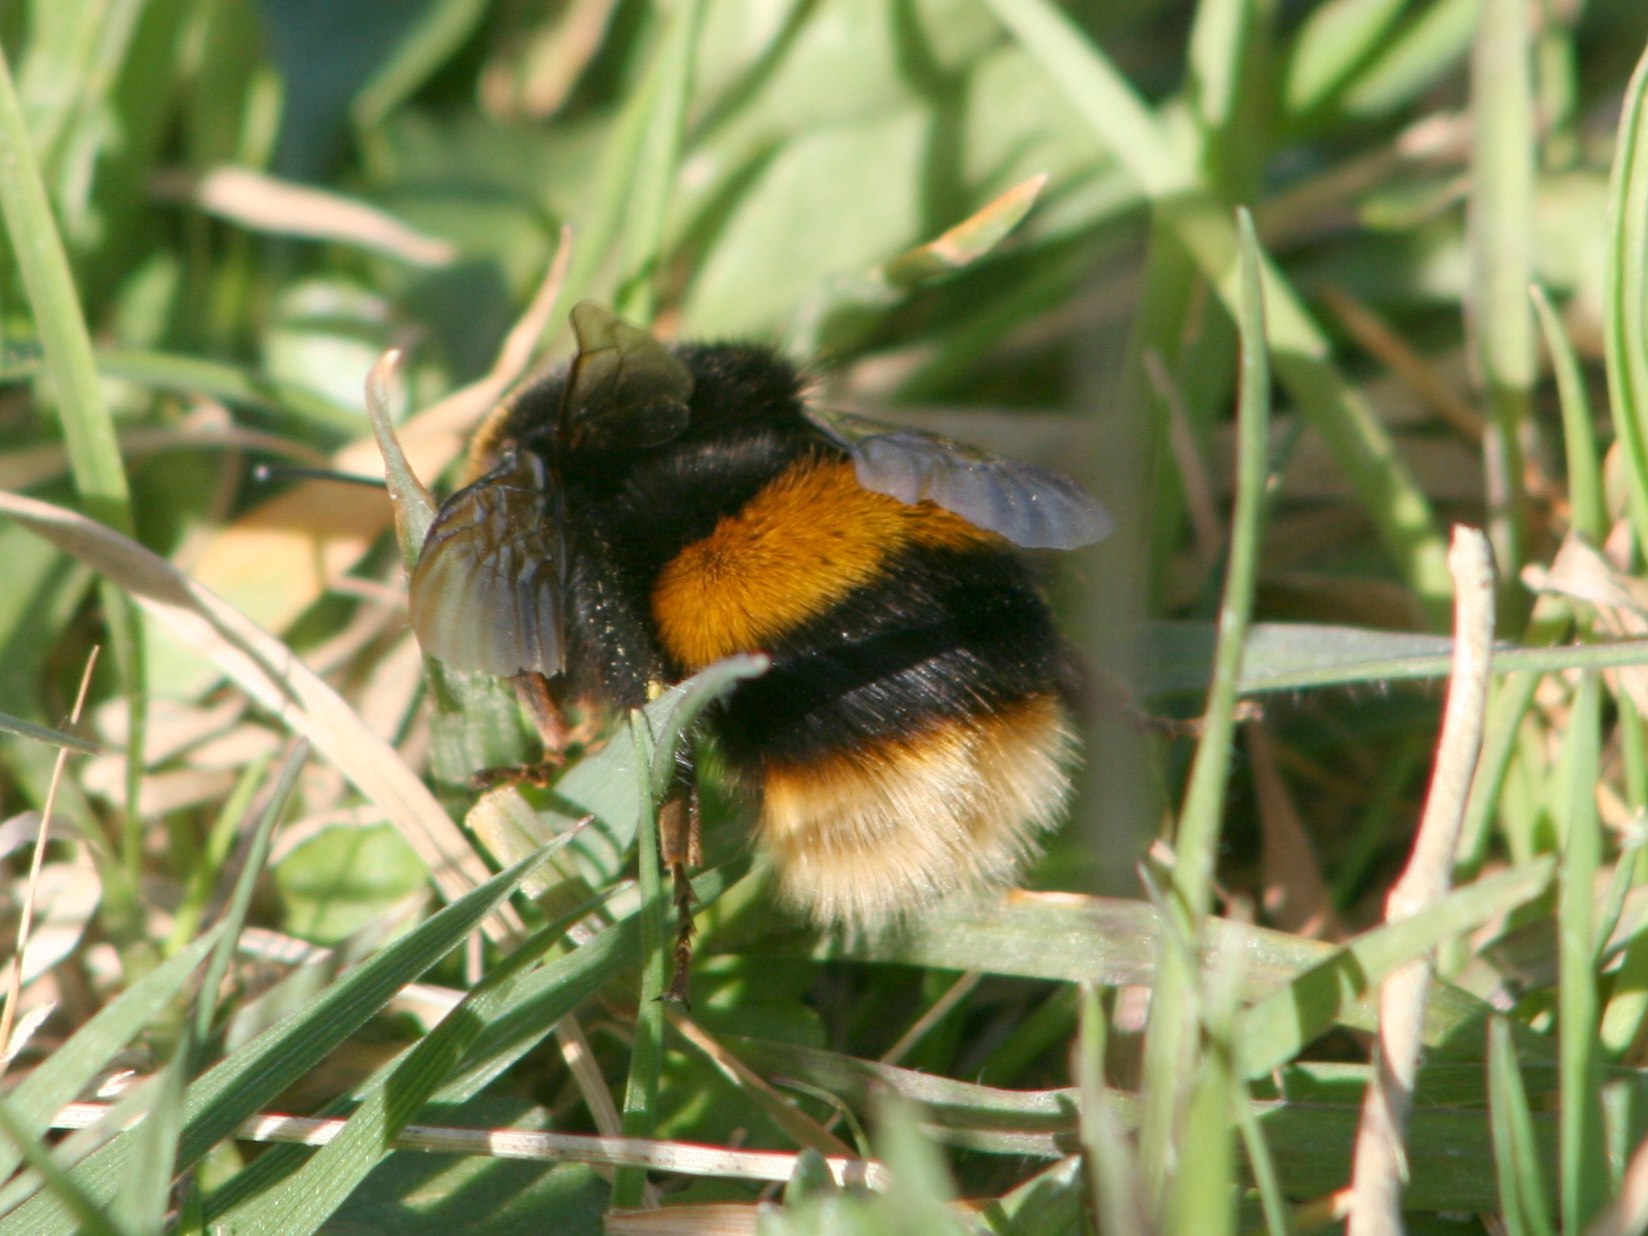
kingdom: Animalia
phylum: Arthropoda
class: Insecta
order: Hymenoptera
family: Apidae
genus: Bombus
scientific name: Bombus terrestris
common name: Buff-tailed bumblebee
